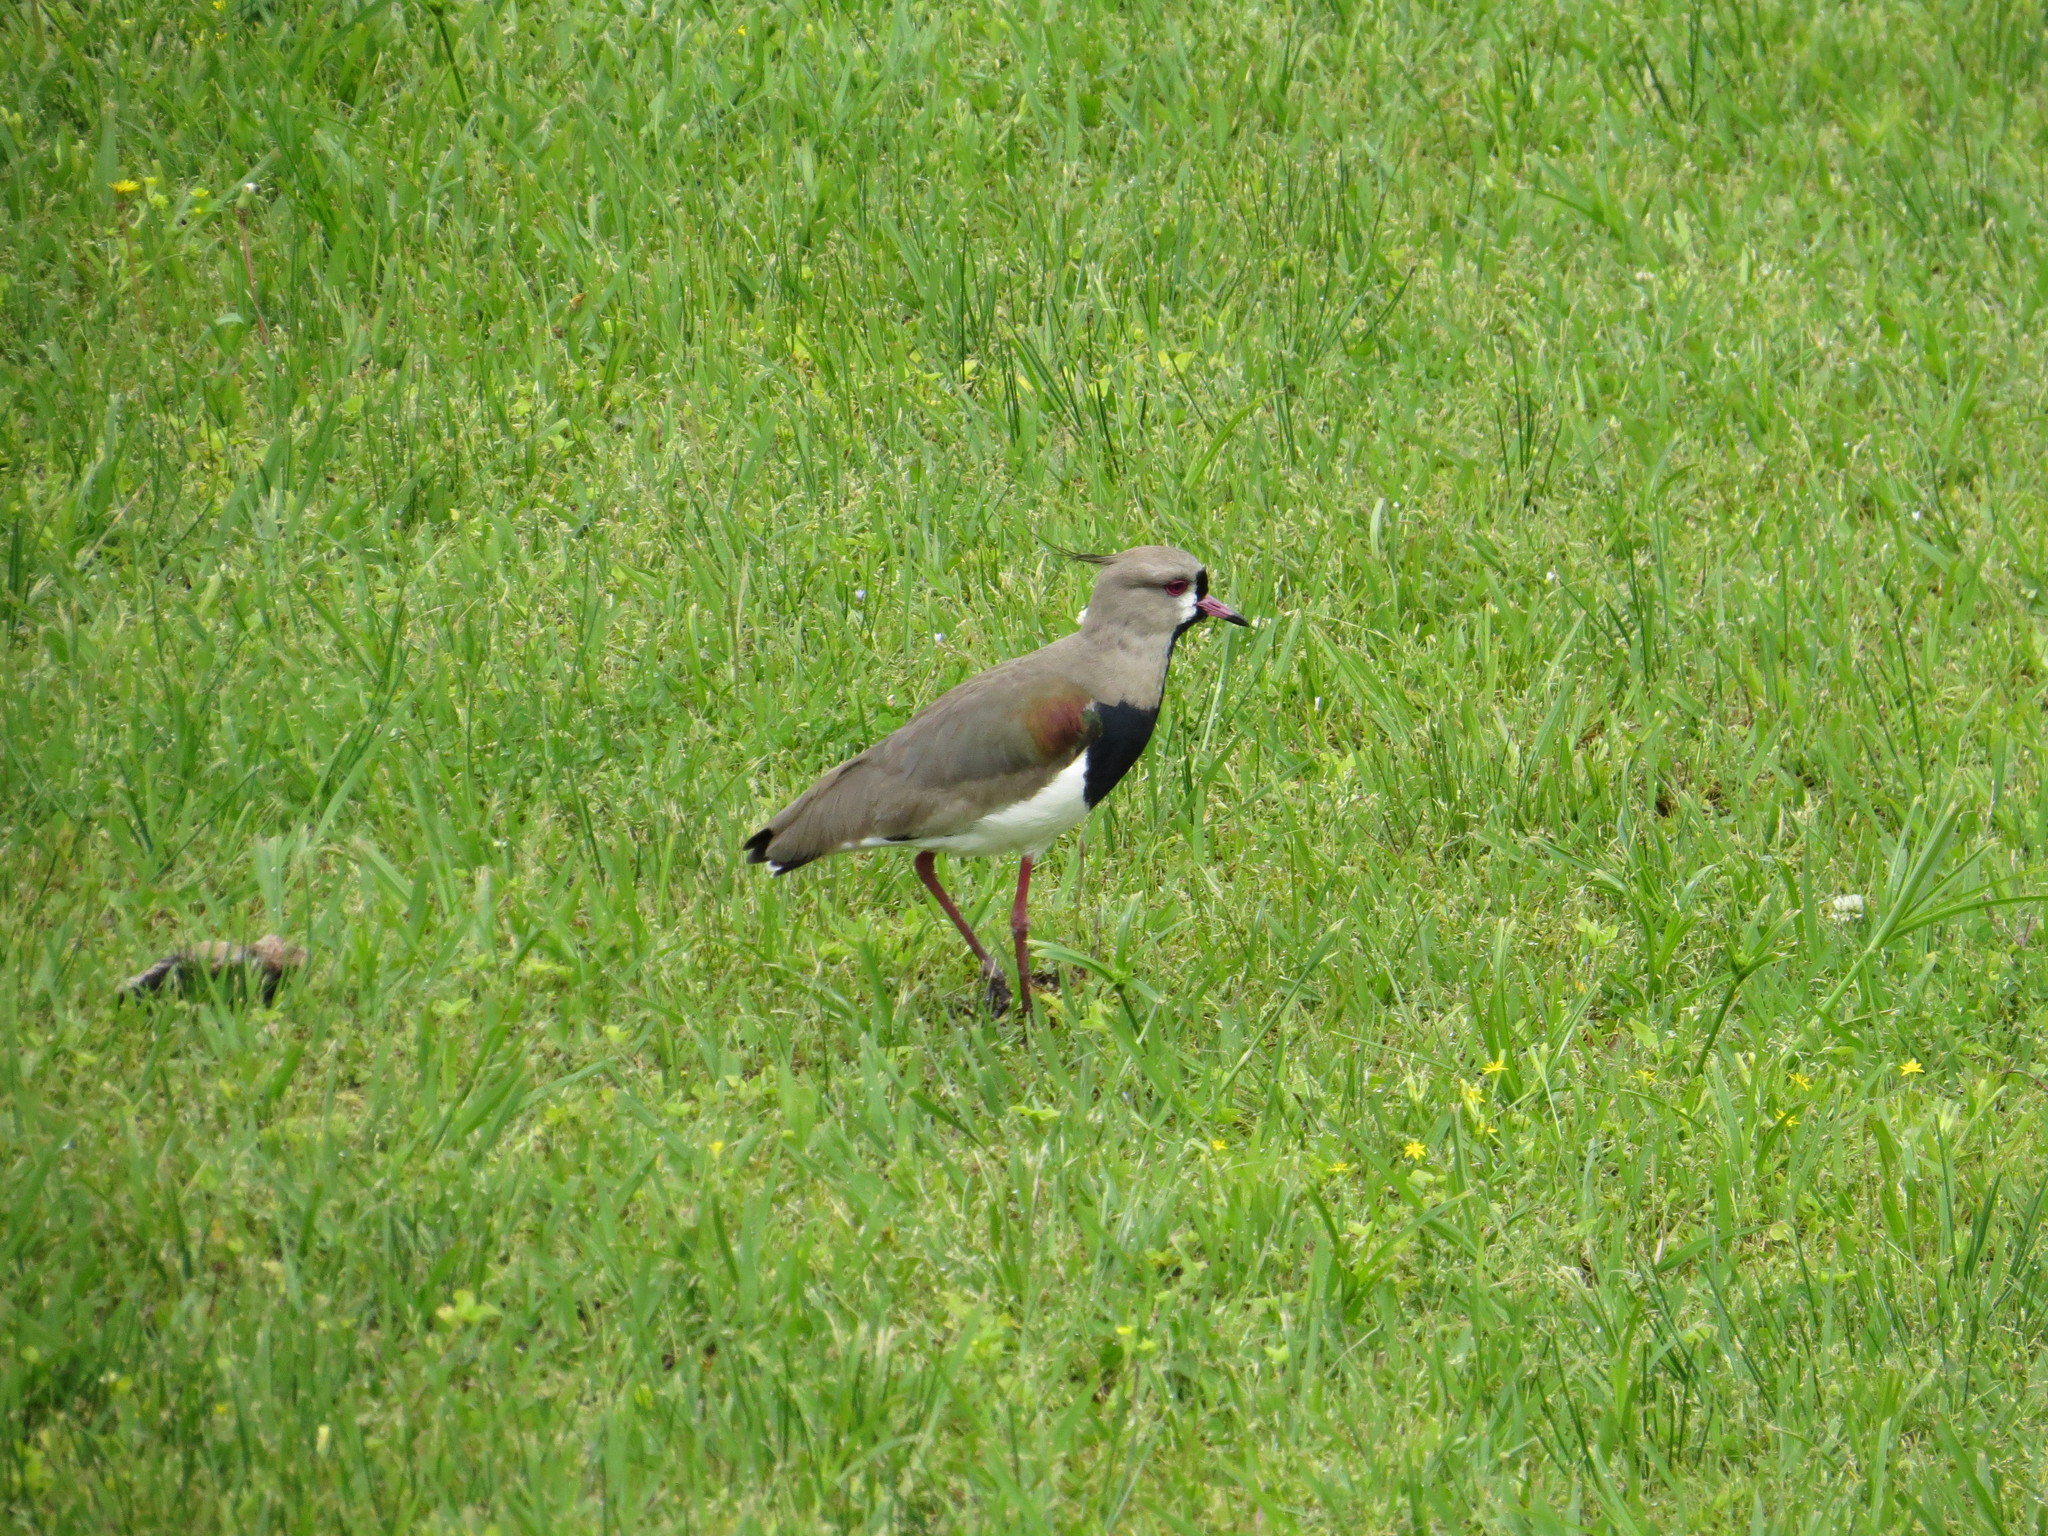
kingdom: Animalia
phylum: Chordata
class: Aves
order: Charadriiformes
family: Charadriidae
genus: Vanellus
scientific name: Vanellus chilensis
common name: Southern lapwing
